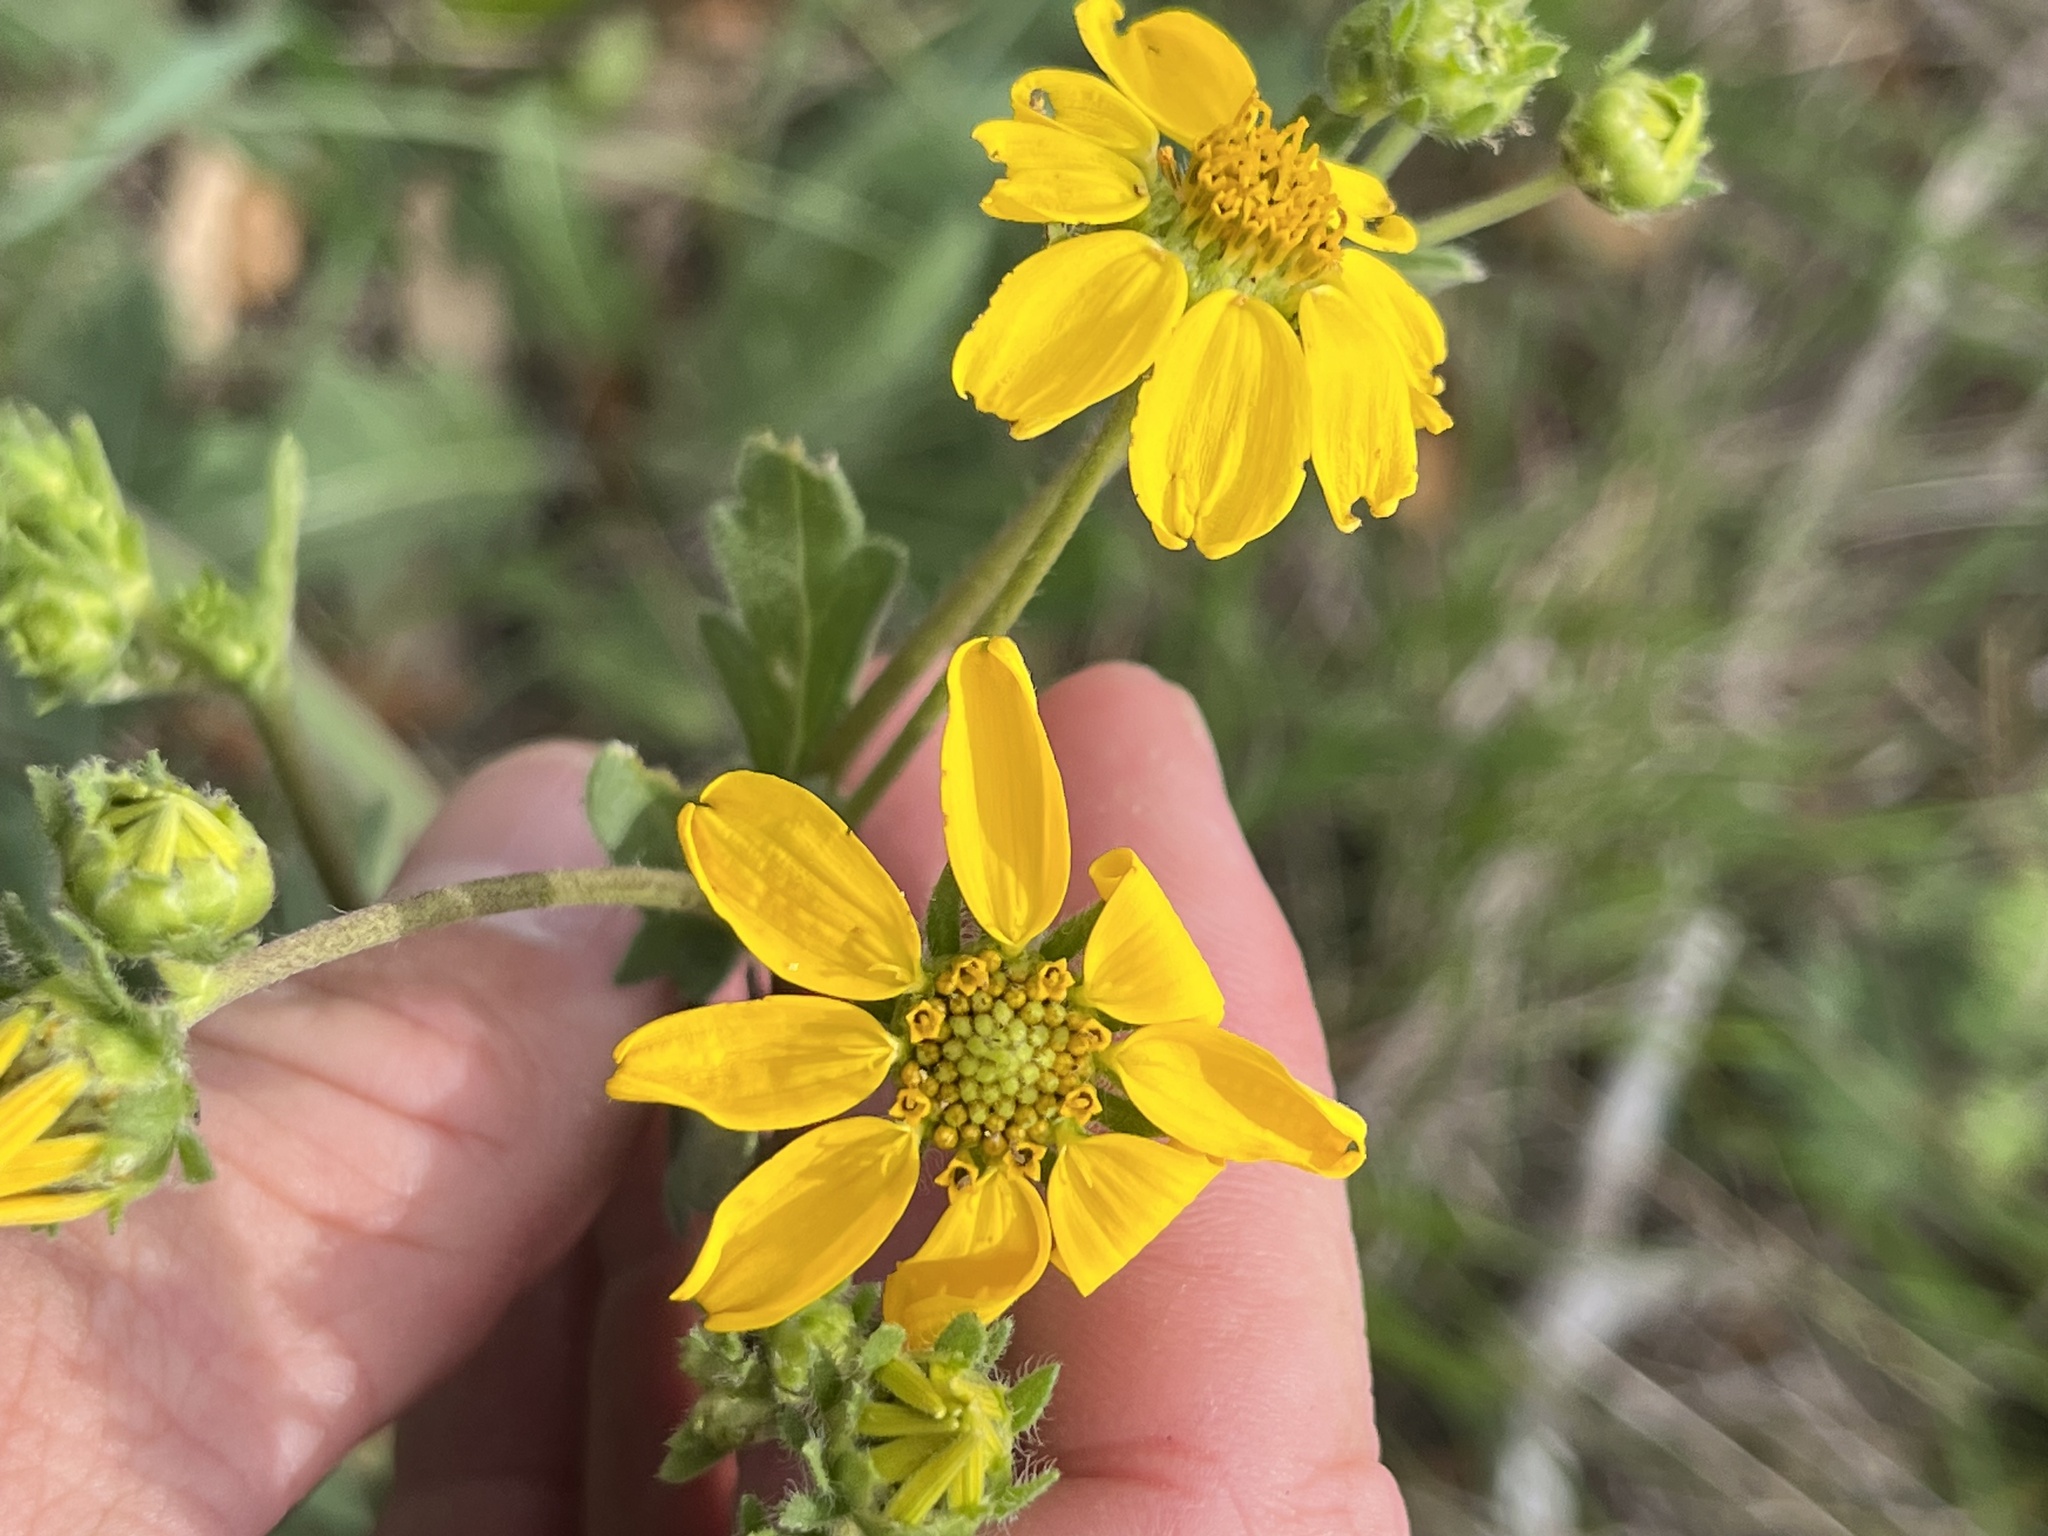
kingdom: Plantae
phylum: Tracheophyta
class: Magnoliopsida
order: Asterales
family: Asteraceae
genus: Engelmannia
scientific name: Engelmannia peristenia
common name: Engelmann's daisy
